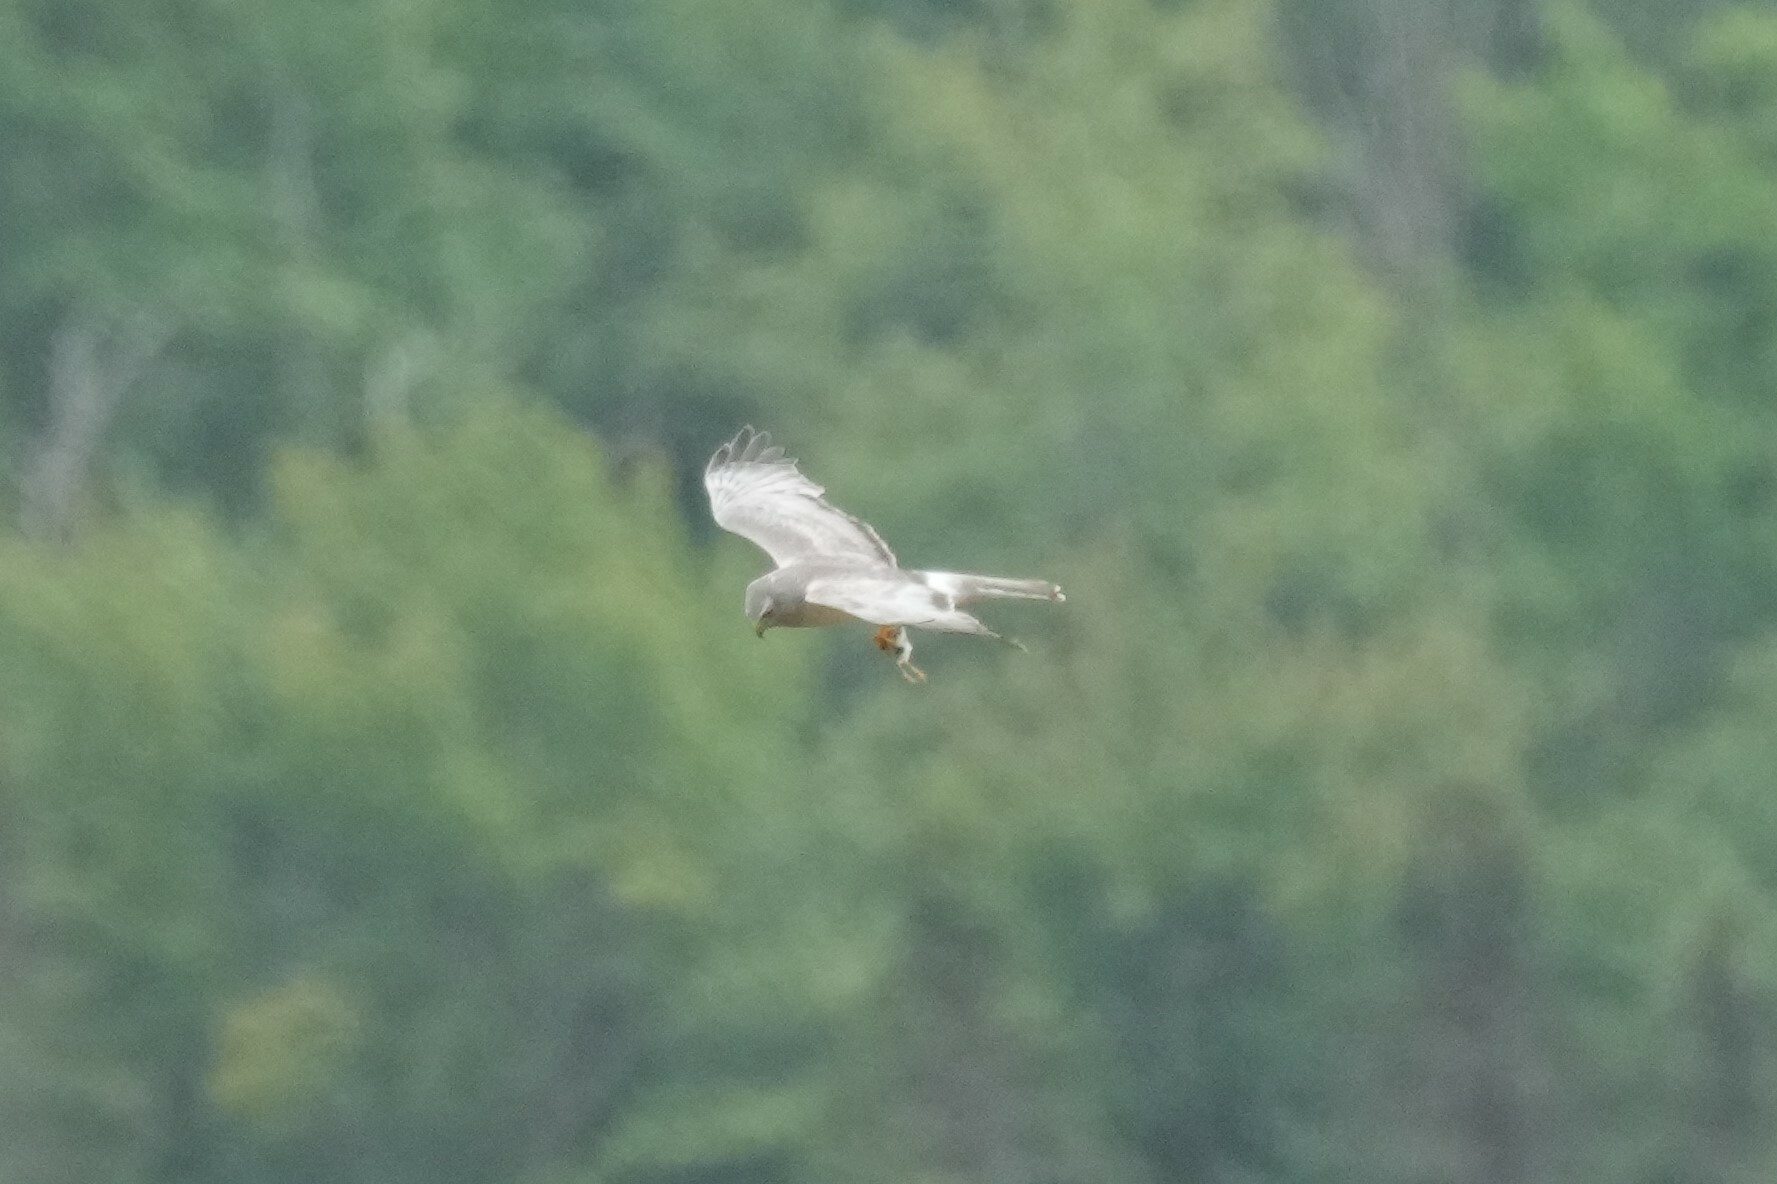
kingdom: Animalia
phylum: Chordata
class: Aves
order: Accipitriformes
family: Accipitridae
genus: Circus
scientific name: Circus cyaneus
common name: Hen harrier
